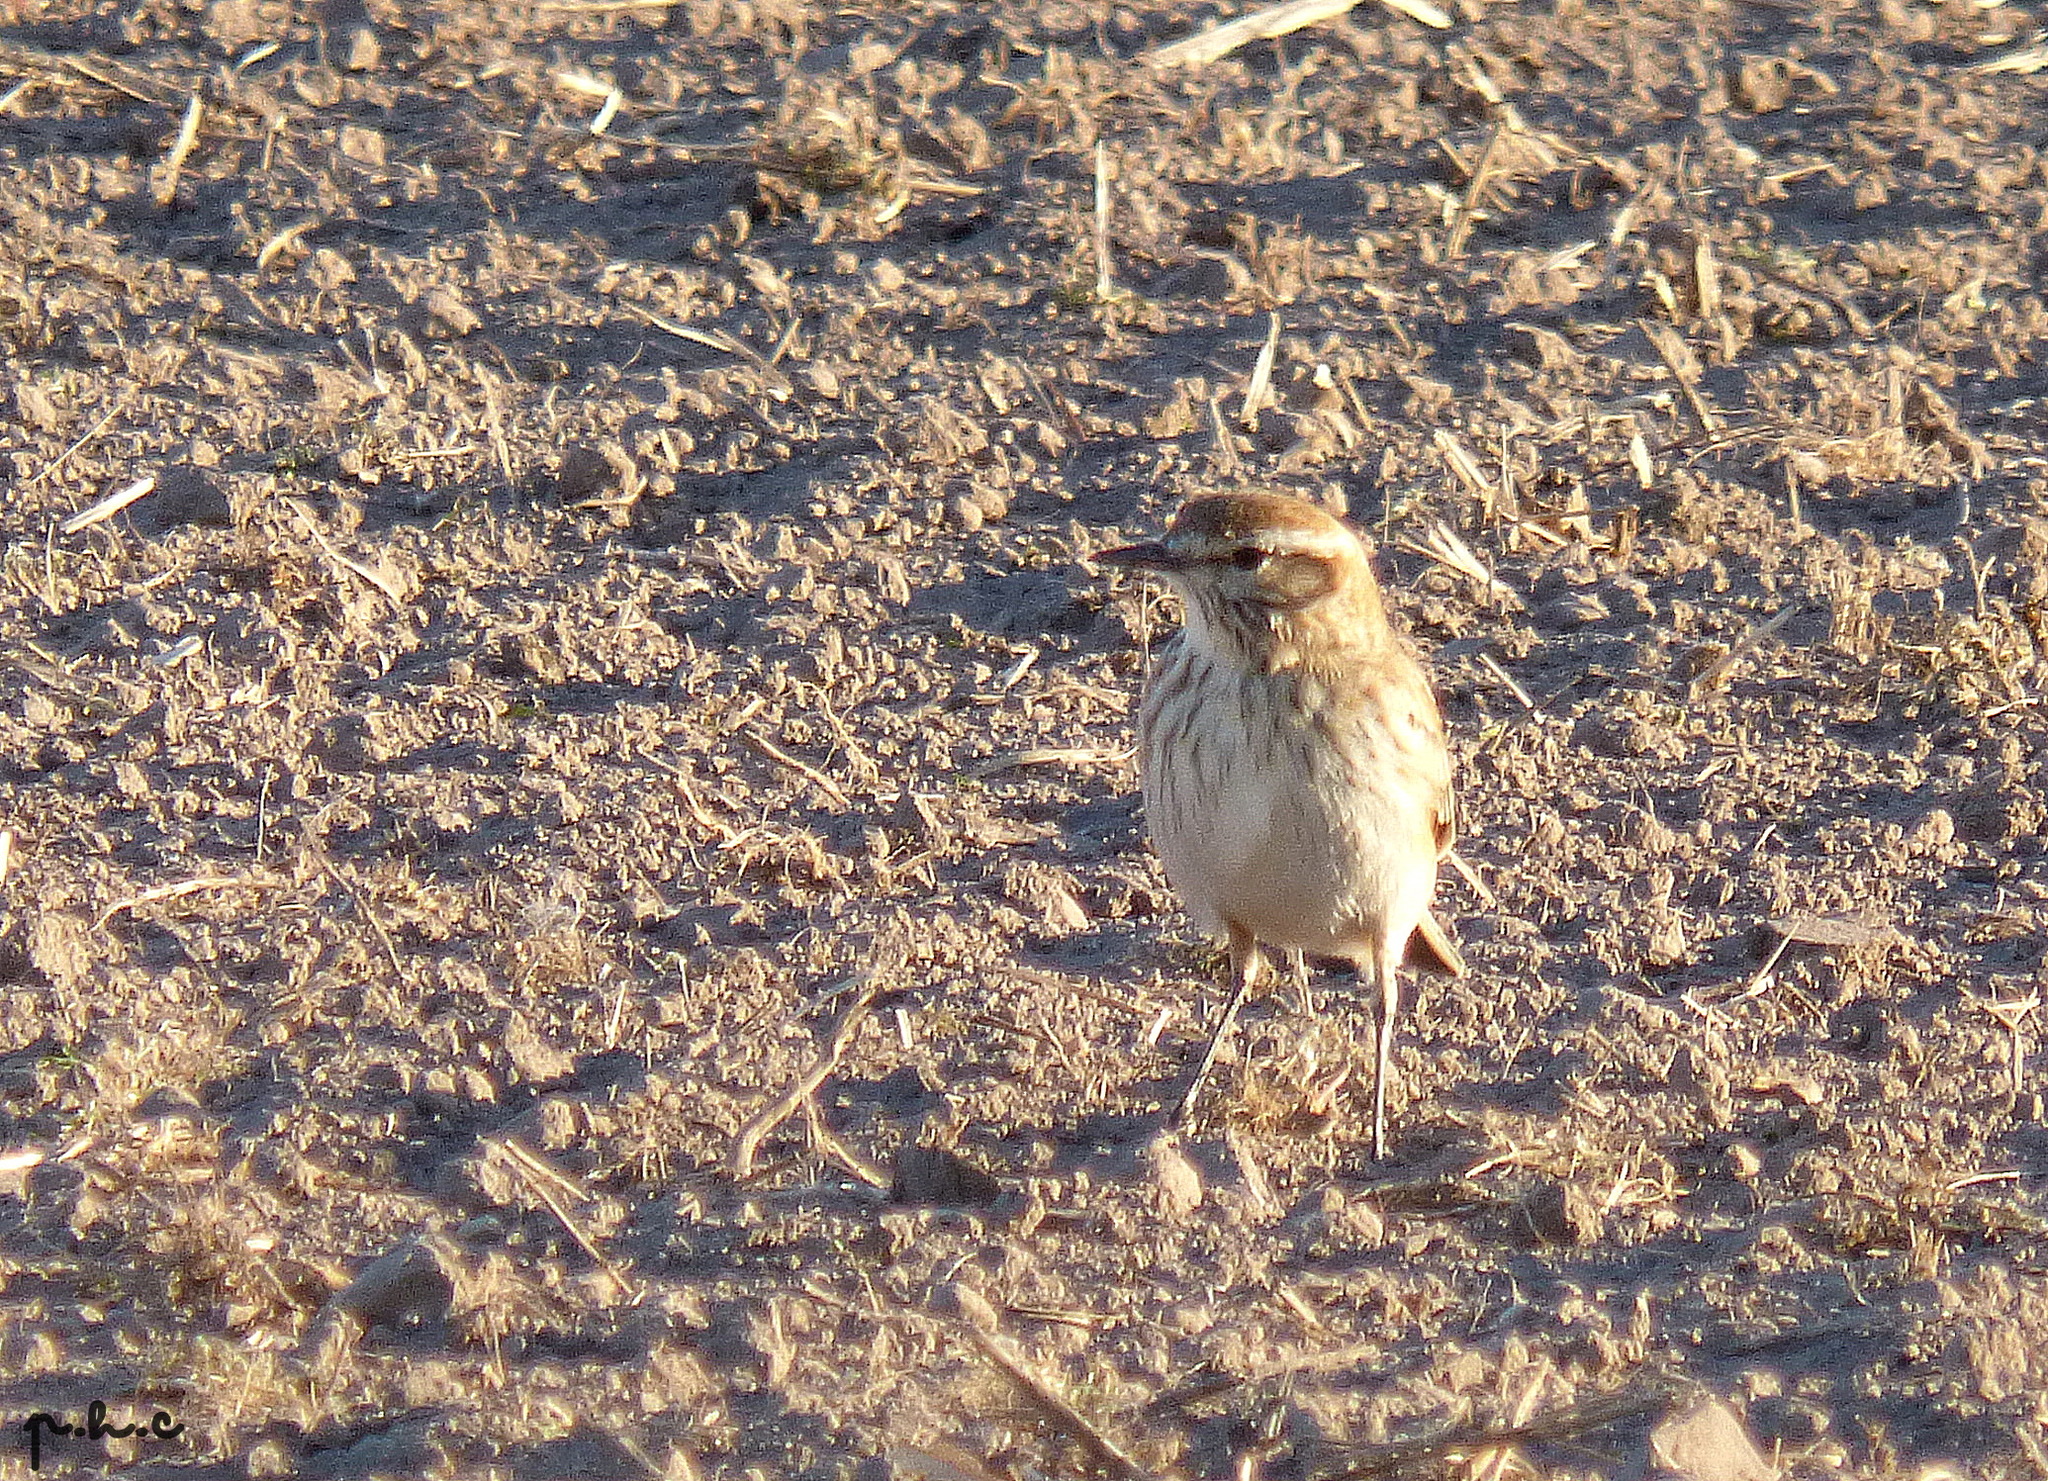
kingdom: Animalia
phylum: Chordata
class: Aves
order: Passeriformes
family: Tyrannidae
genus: Xolmis
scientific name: Xolmis rubetra
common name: Rusty-backed monjita
